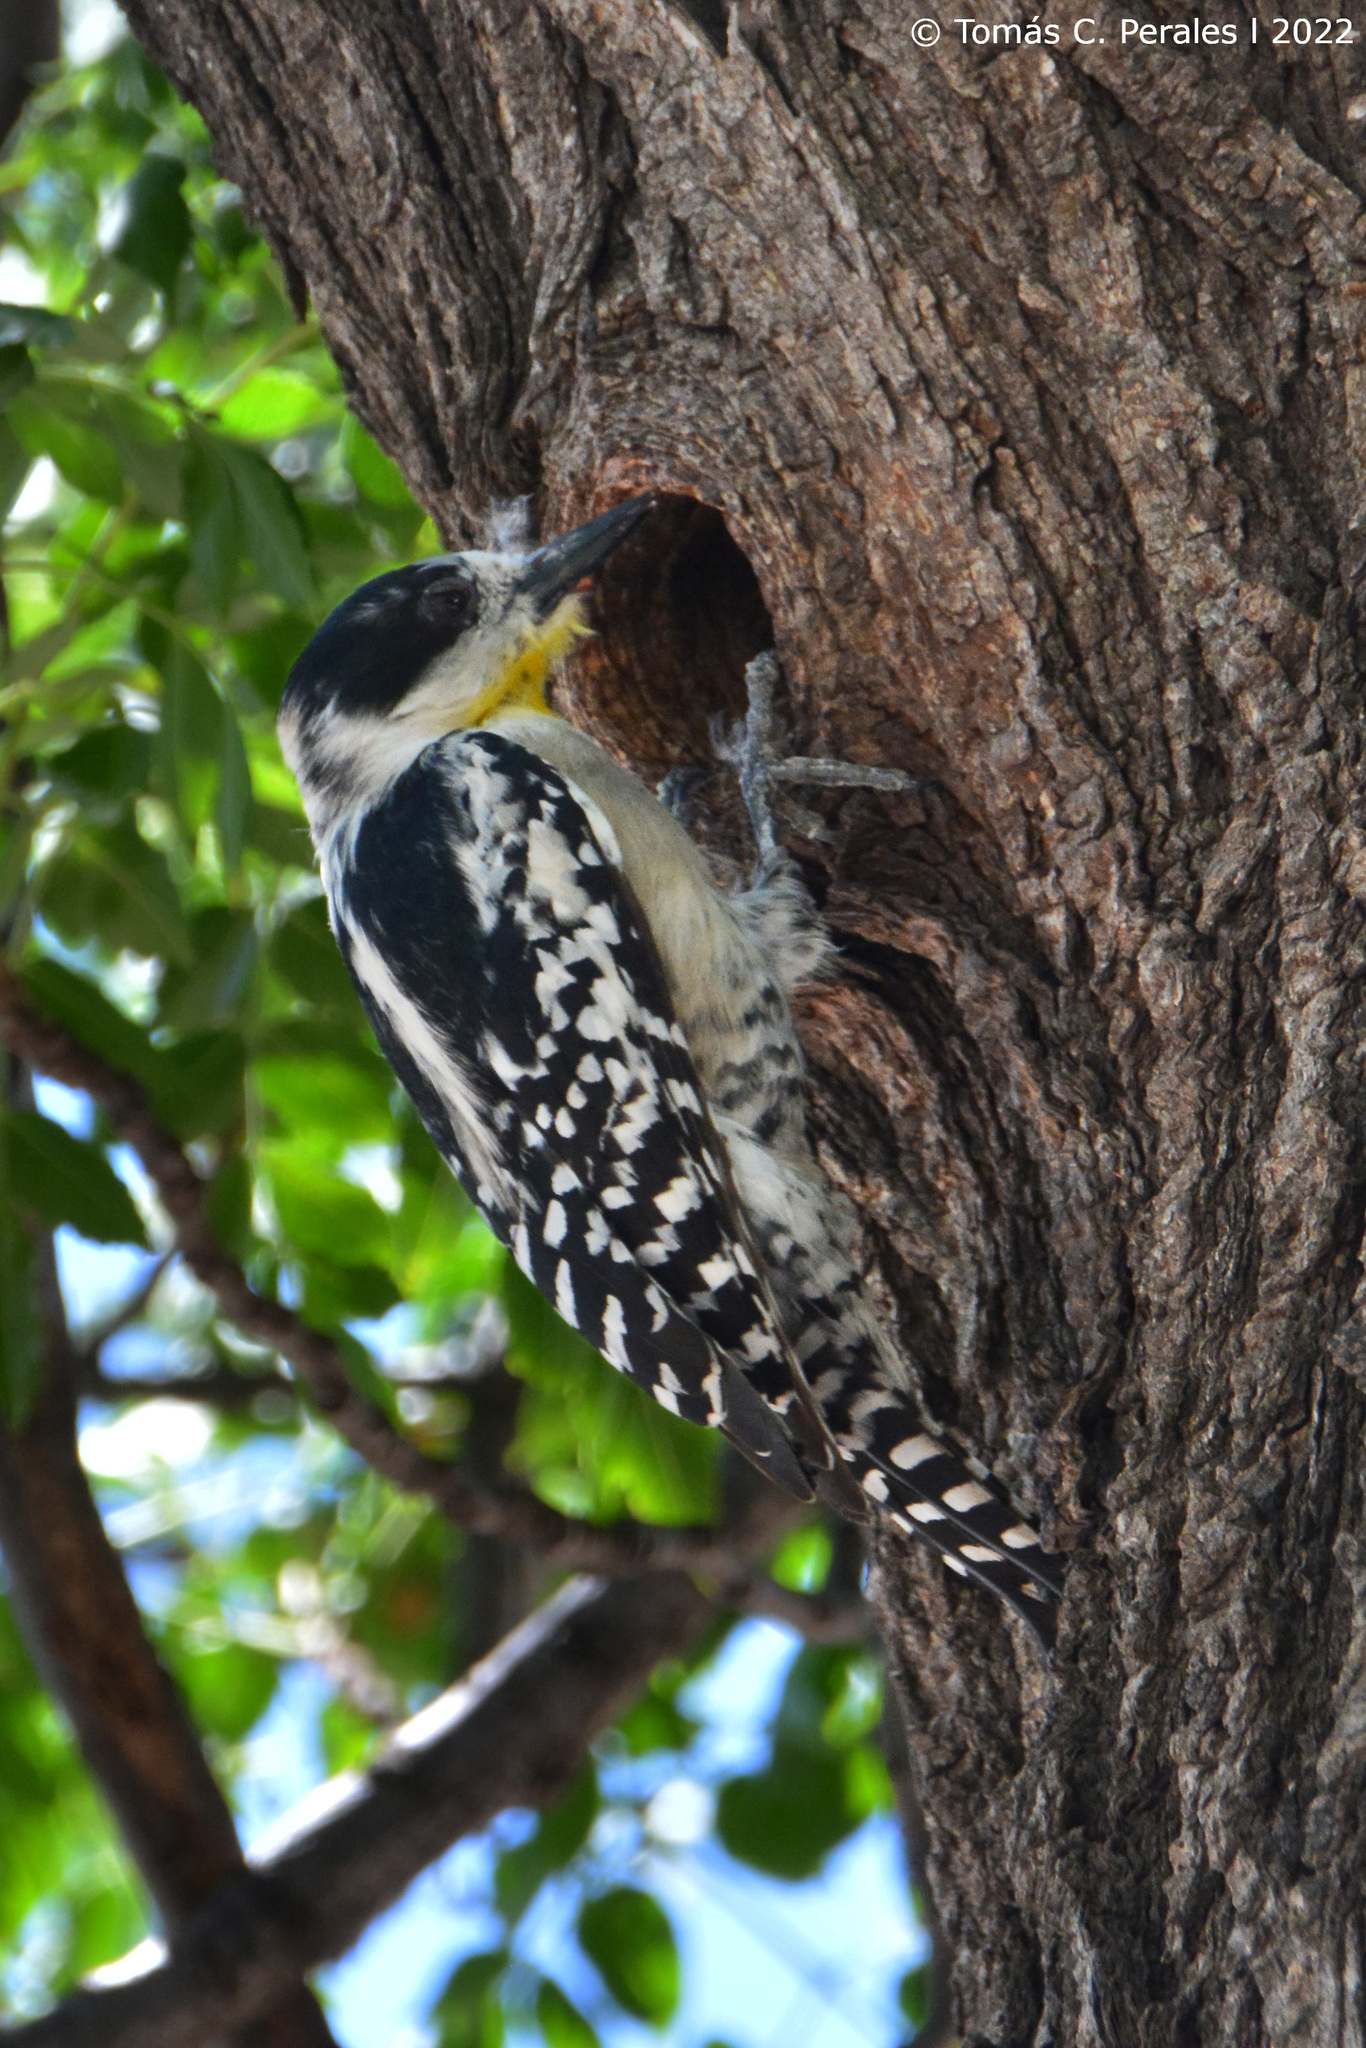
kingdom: Animalia
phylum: Chordata
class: Aves
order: Piciformes
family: Picidae
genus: Melanerpes
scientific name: Melanerpes cactorum
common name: White-fronted woodpecker
